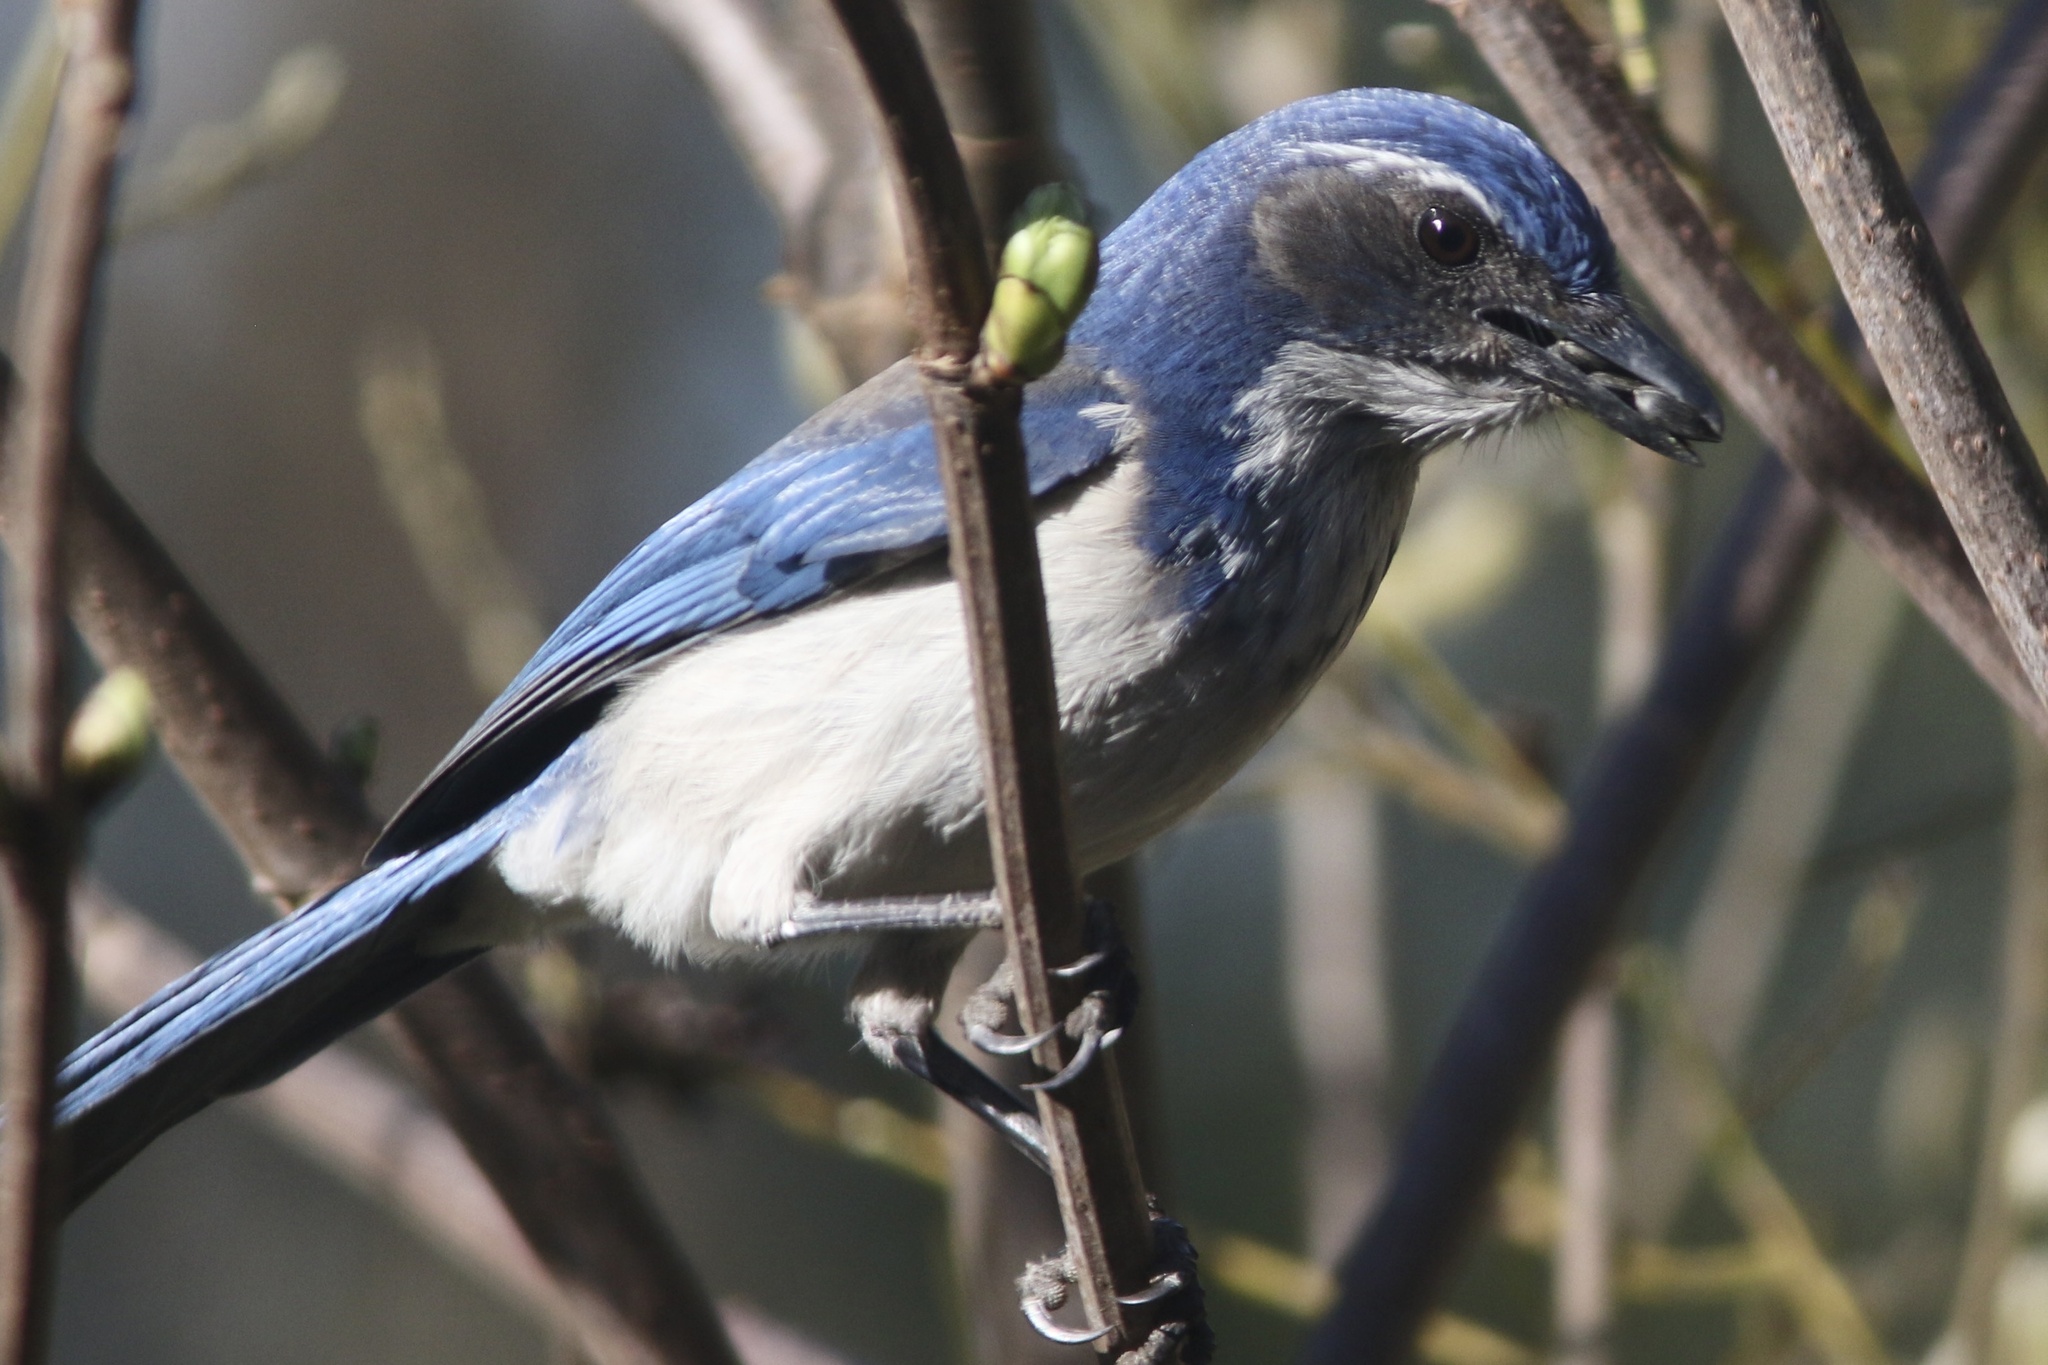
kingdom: Animalia
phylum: Chordata
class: Aves
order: Passeriformes
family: Corvidae
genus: Aphelocoma
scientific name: Aphelocoma californica
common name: California scrub-jay
